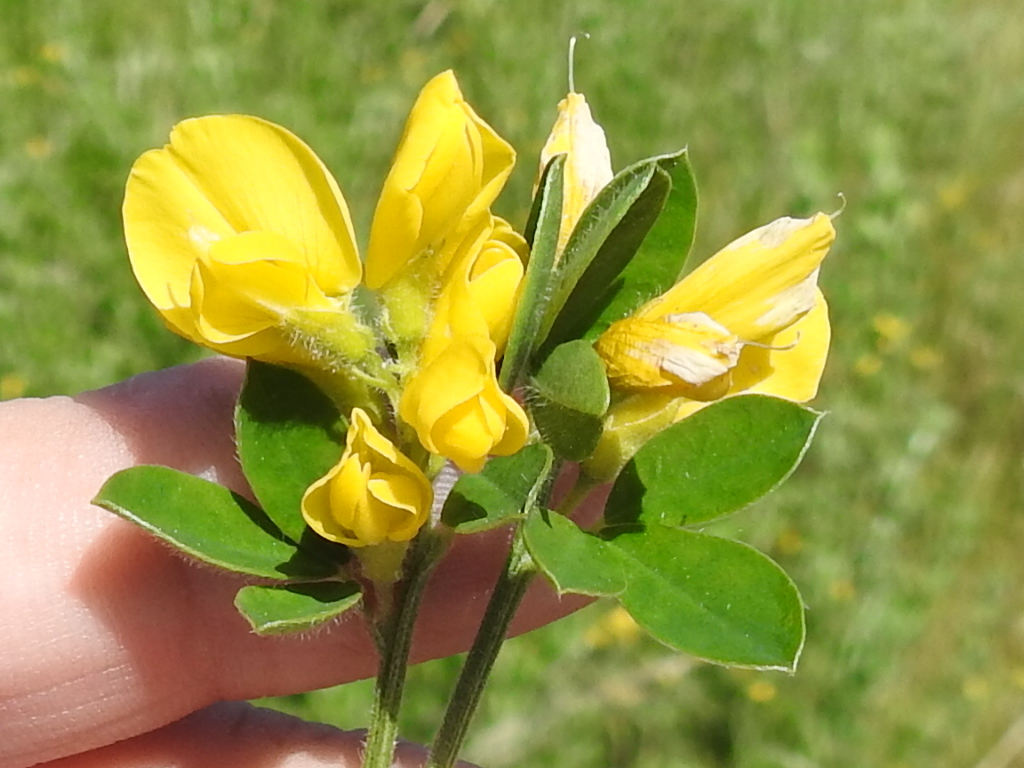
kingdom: Plantae
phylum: Tracheophyta
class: Magnoliopsida
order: Fabales
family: Fabaceae
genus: Genista
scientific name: Genista monspessulana
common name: Montpellier broom
